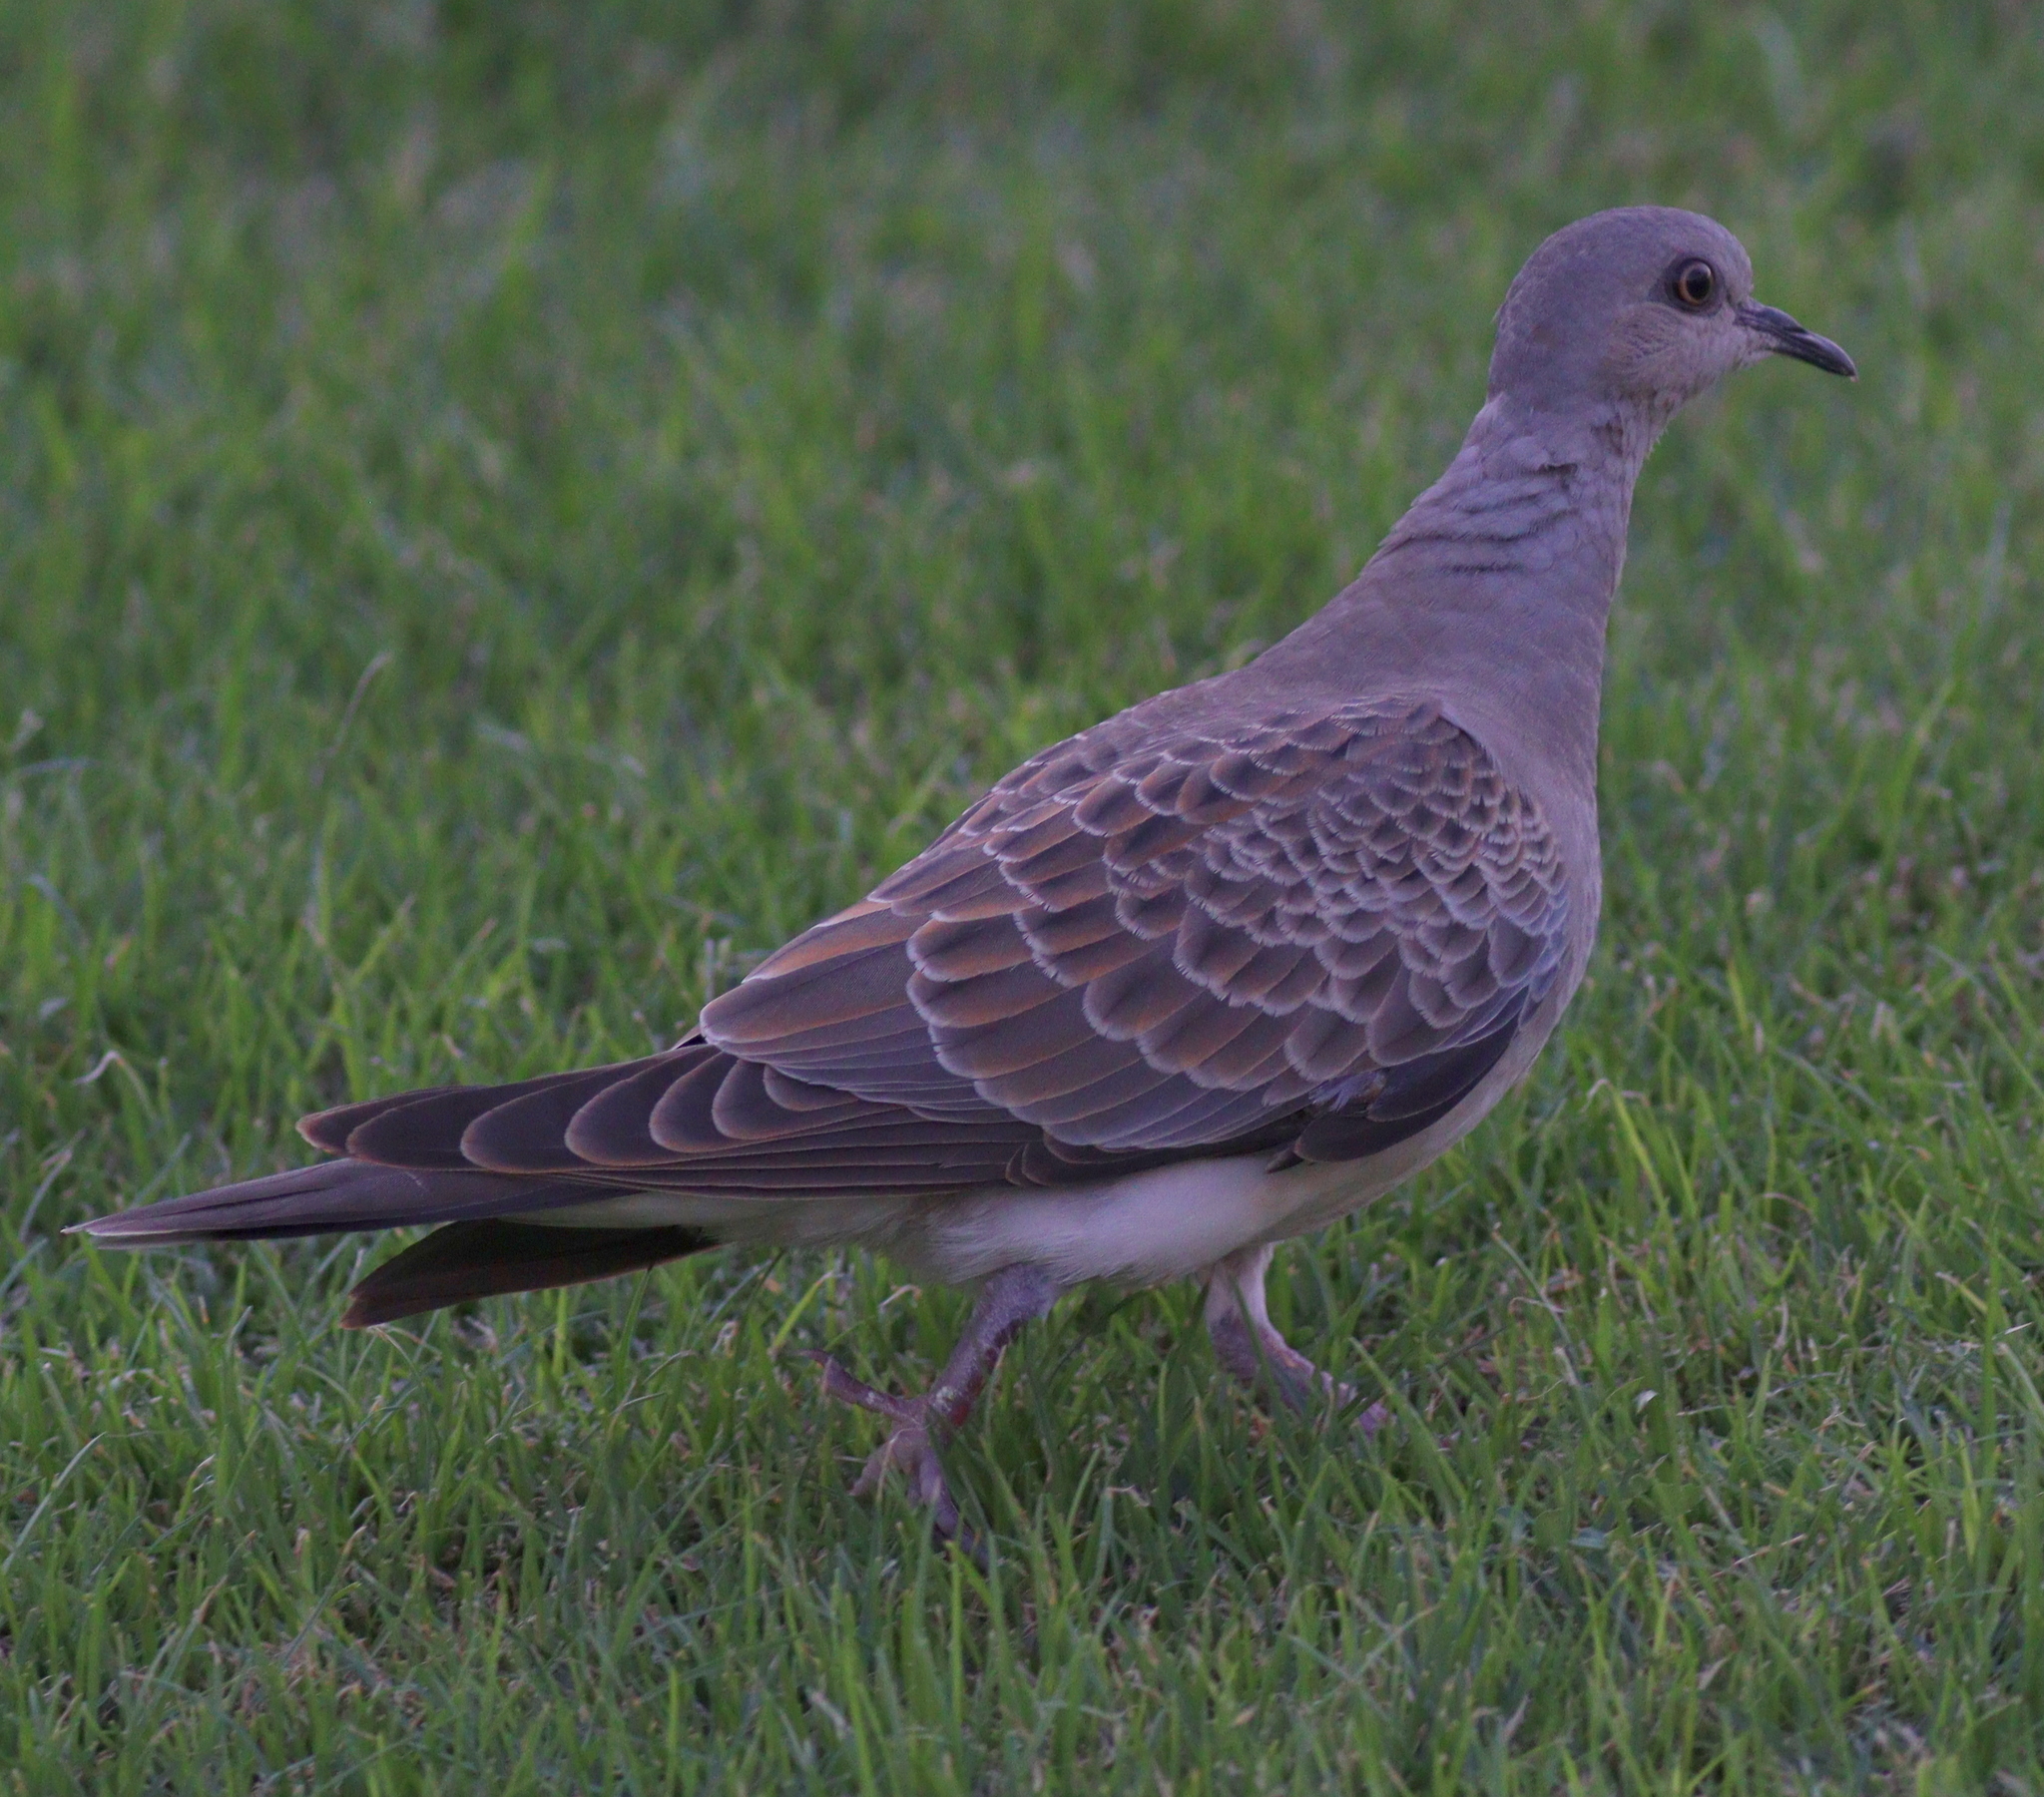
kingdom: Animalia
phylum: Chordata
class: Aves
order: Columbiformes
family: Columbidae
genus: Streptopelia
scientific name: Streptopelia turtur
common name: European turtle dove
